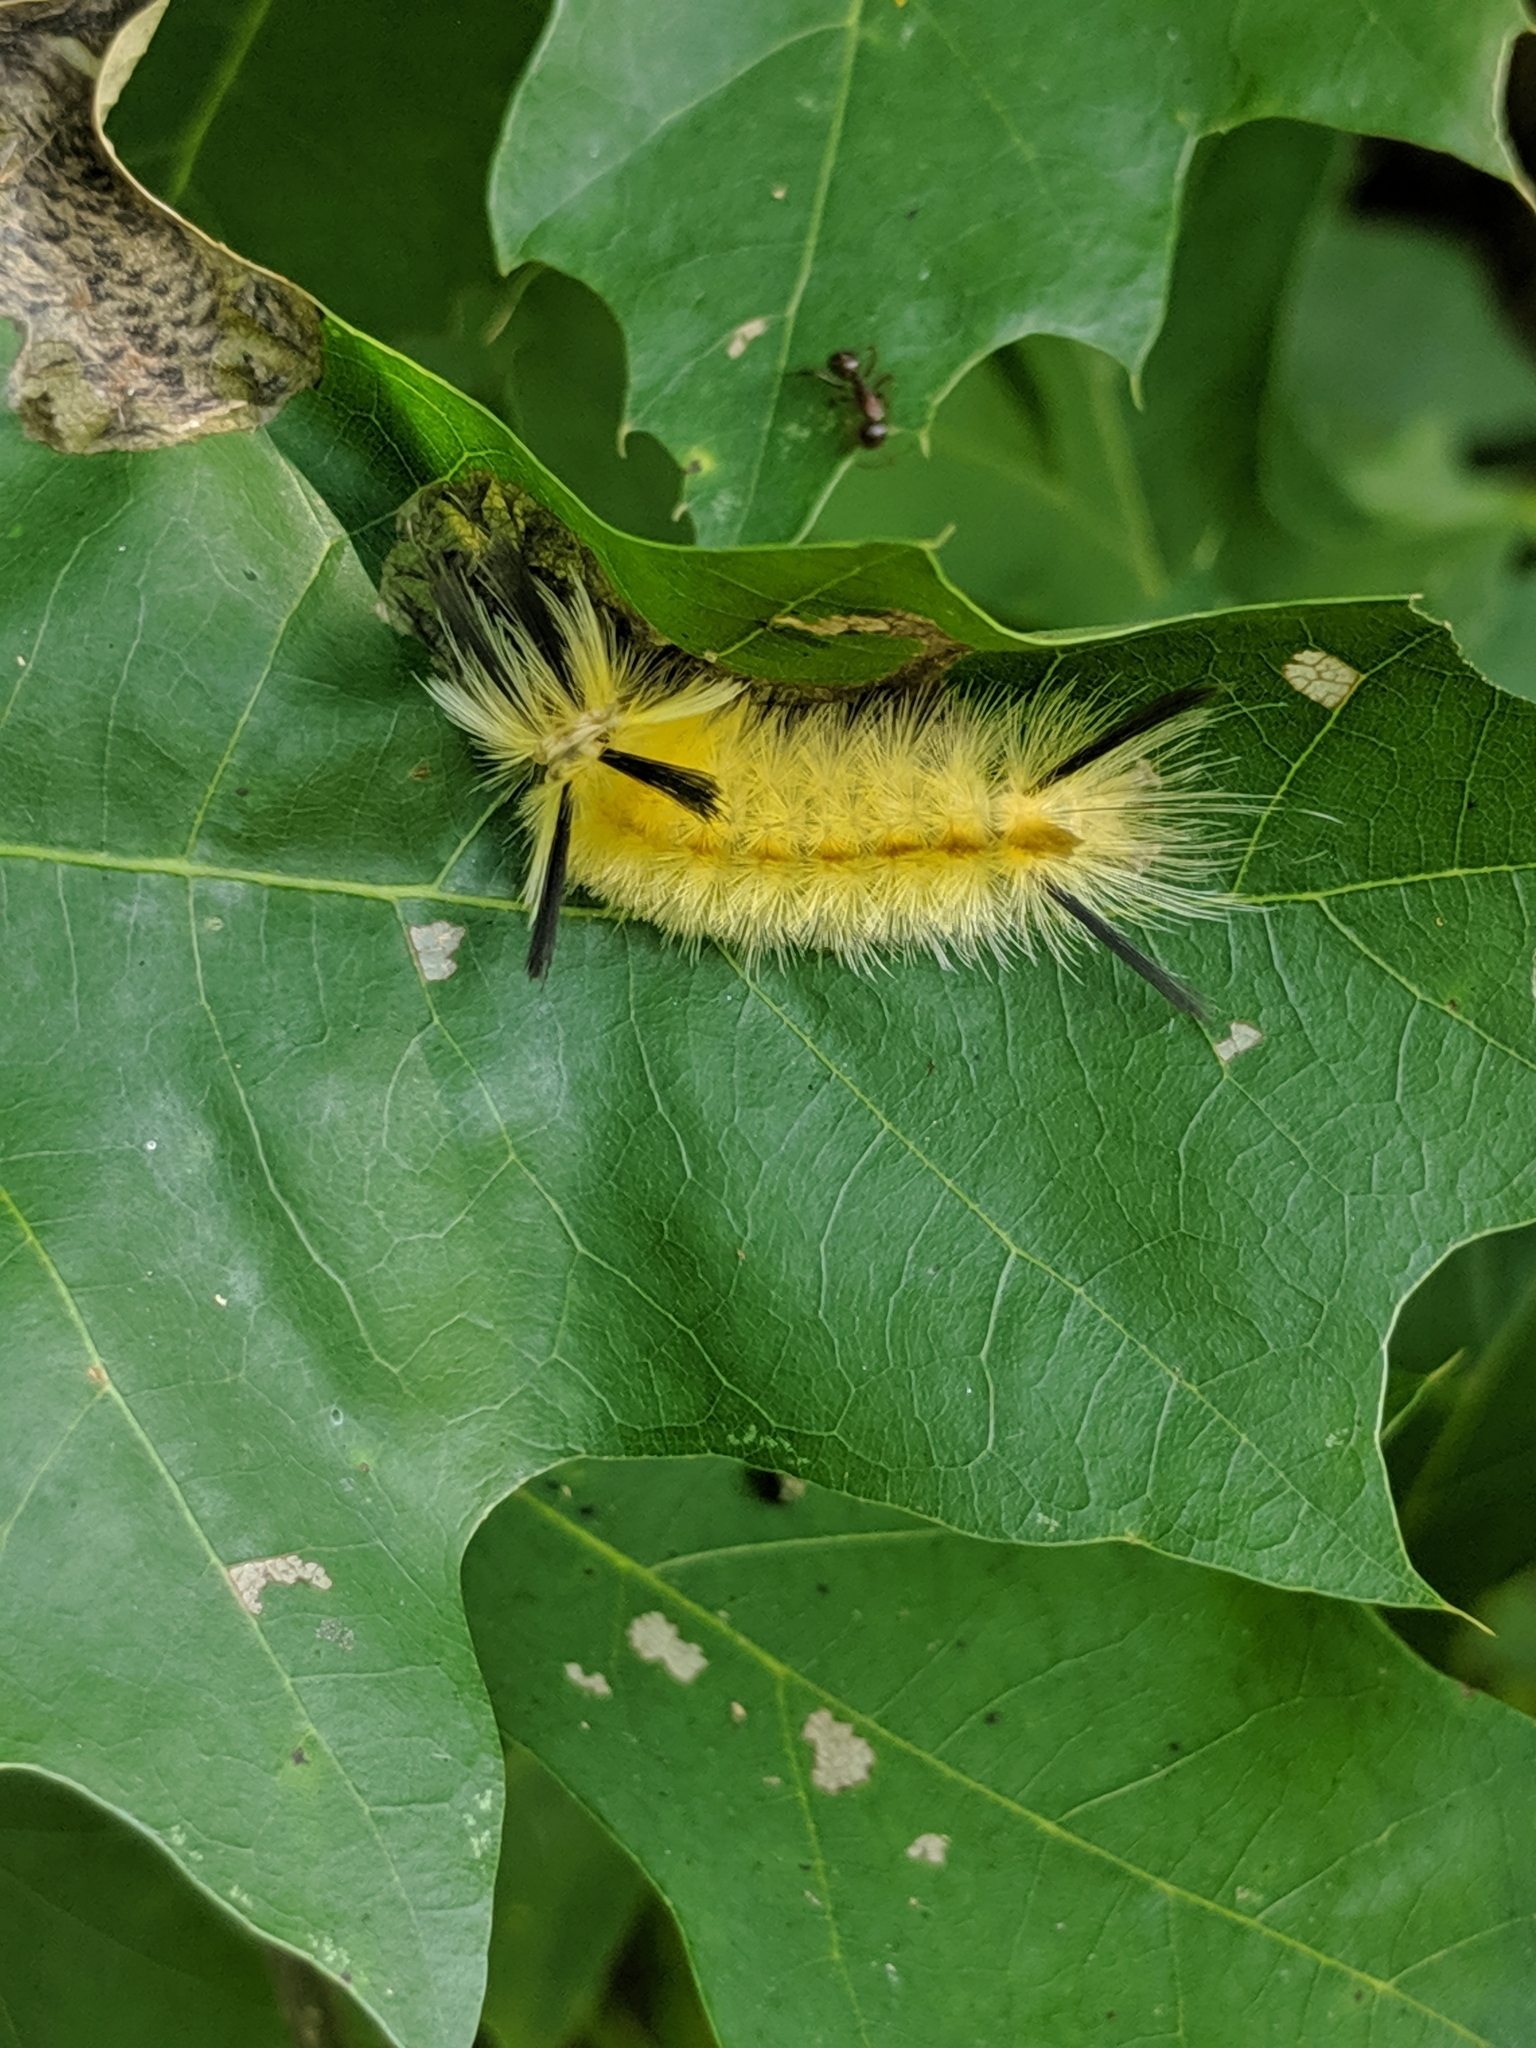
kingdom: Animalia
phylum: Arthropoda
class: Insecta
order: Lepidoptera
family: Erebidae
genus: Halysidota
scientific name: Halysidota tessellaris
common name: Banded tussock moth
